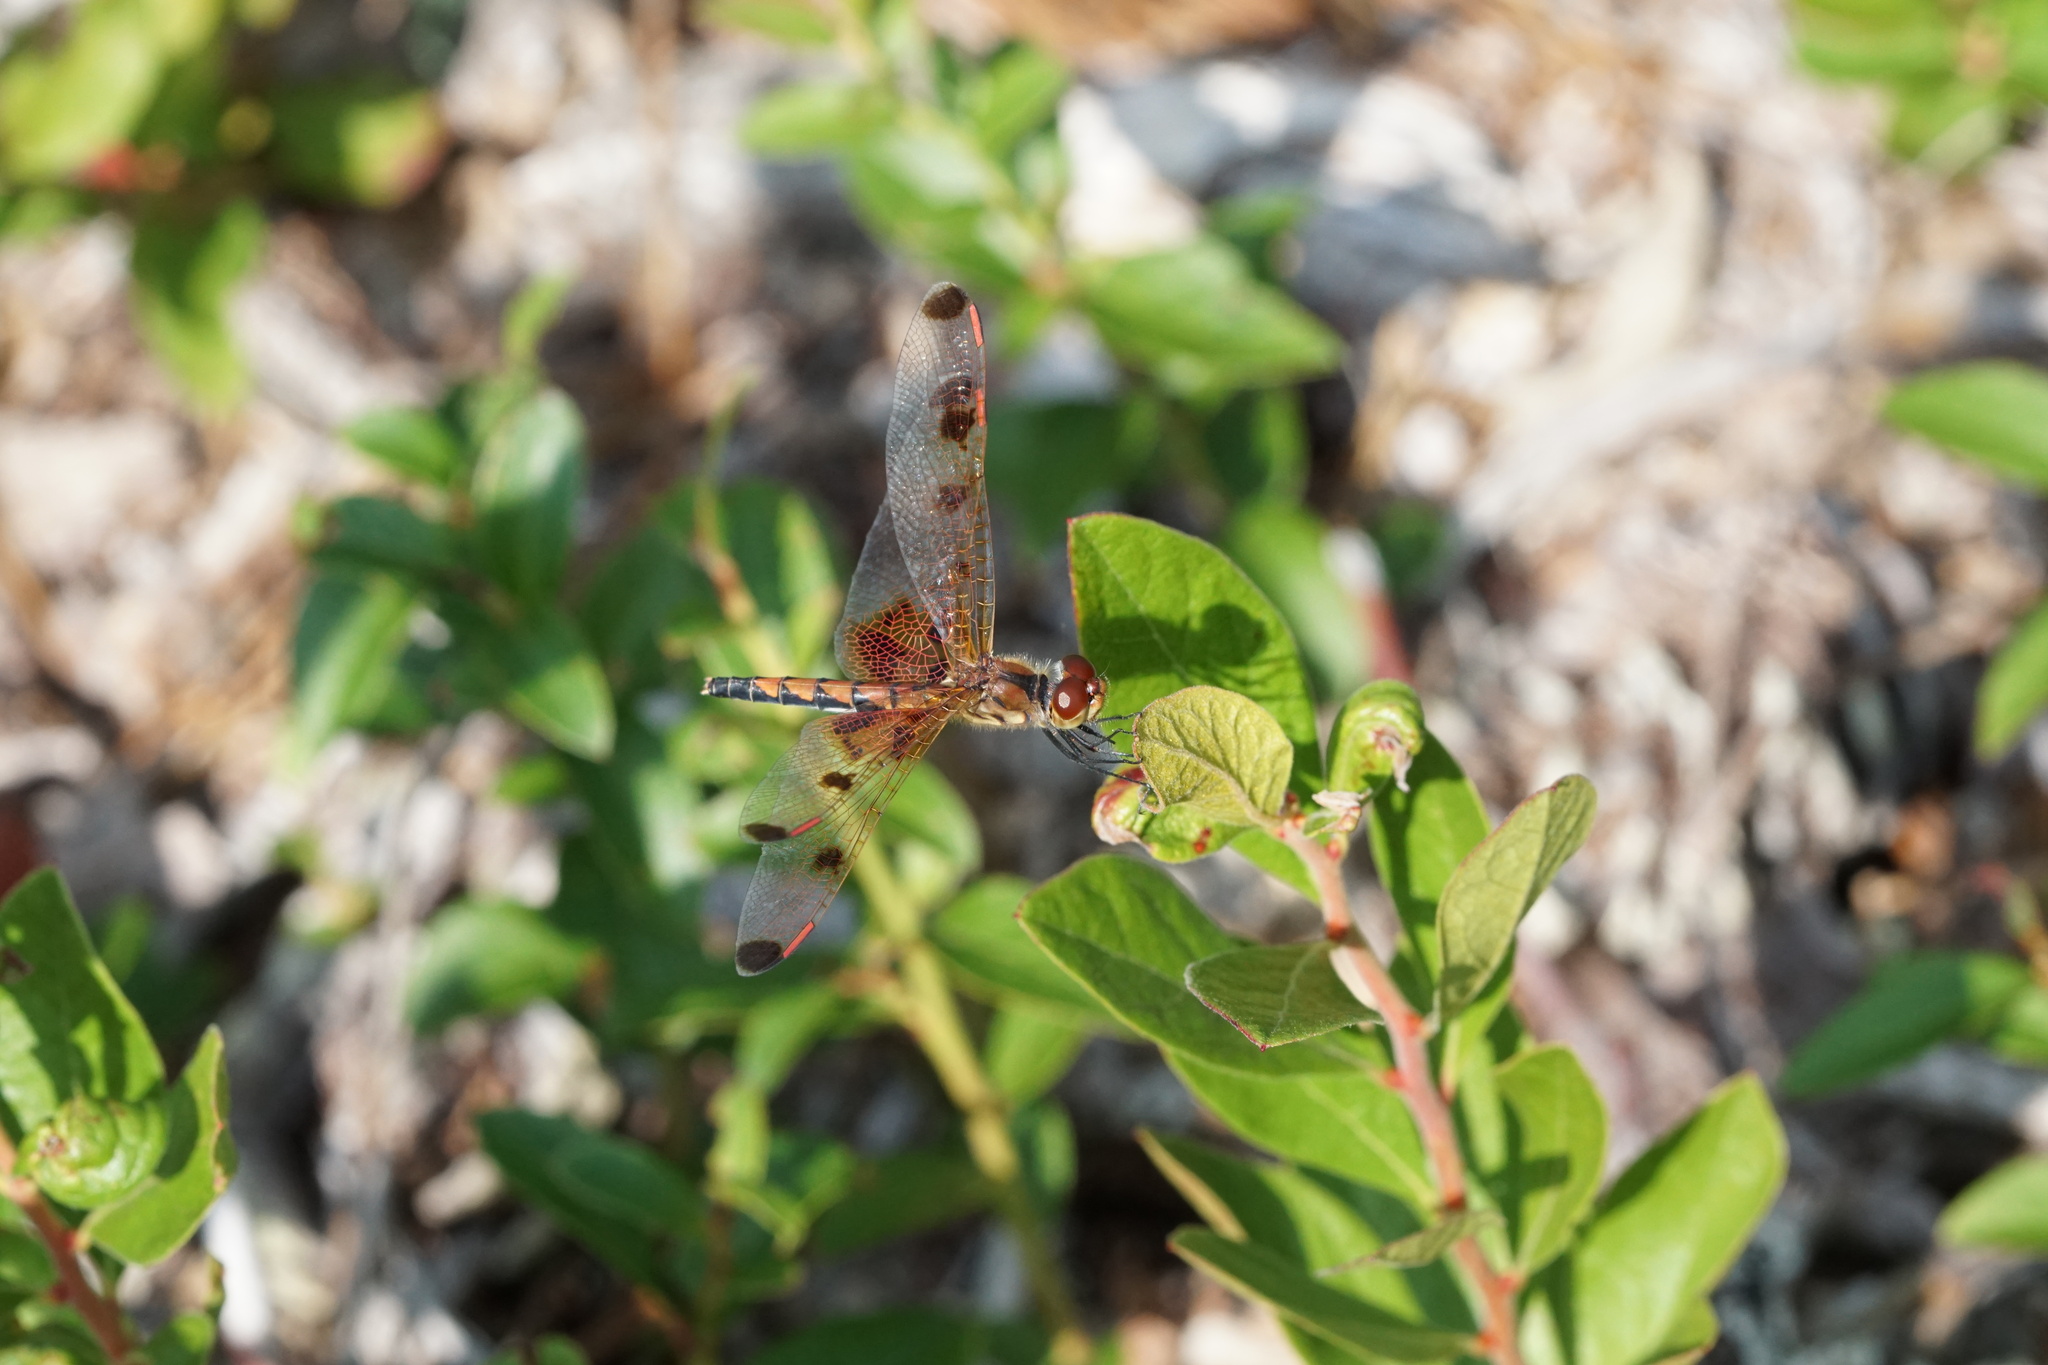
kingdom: Animalia
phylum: Arthropoda
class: Insecta
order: Odonata
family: Libellulidae
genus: Celithemis
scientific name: Celithemis elisa
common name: Calico pennant
